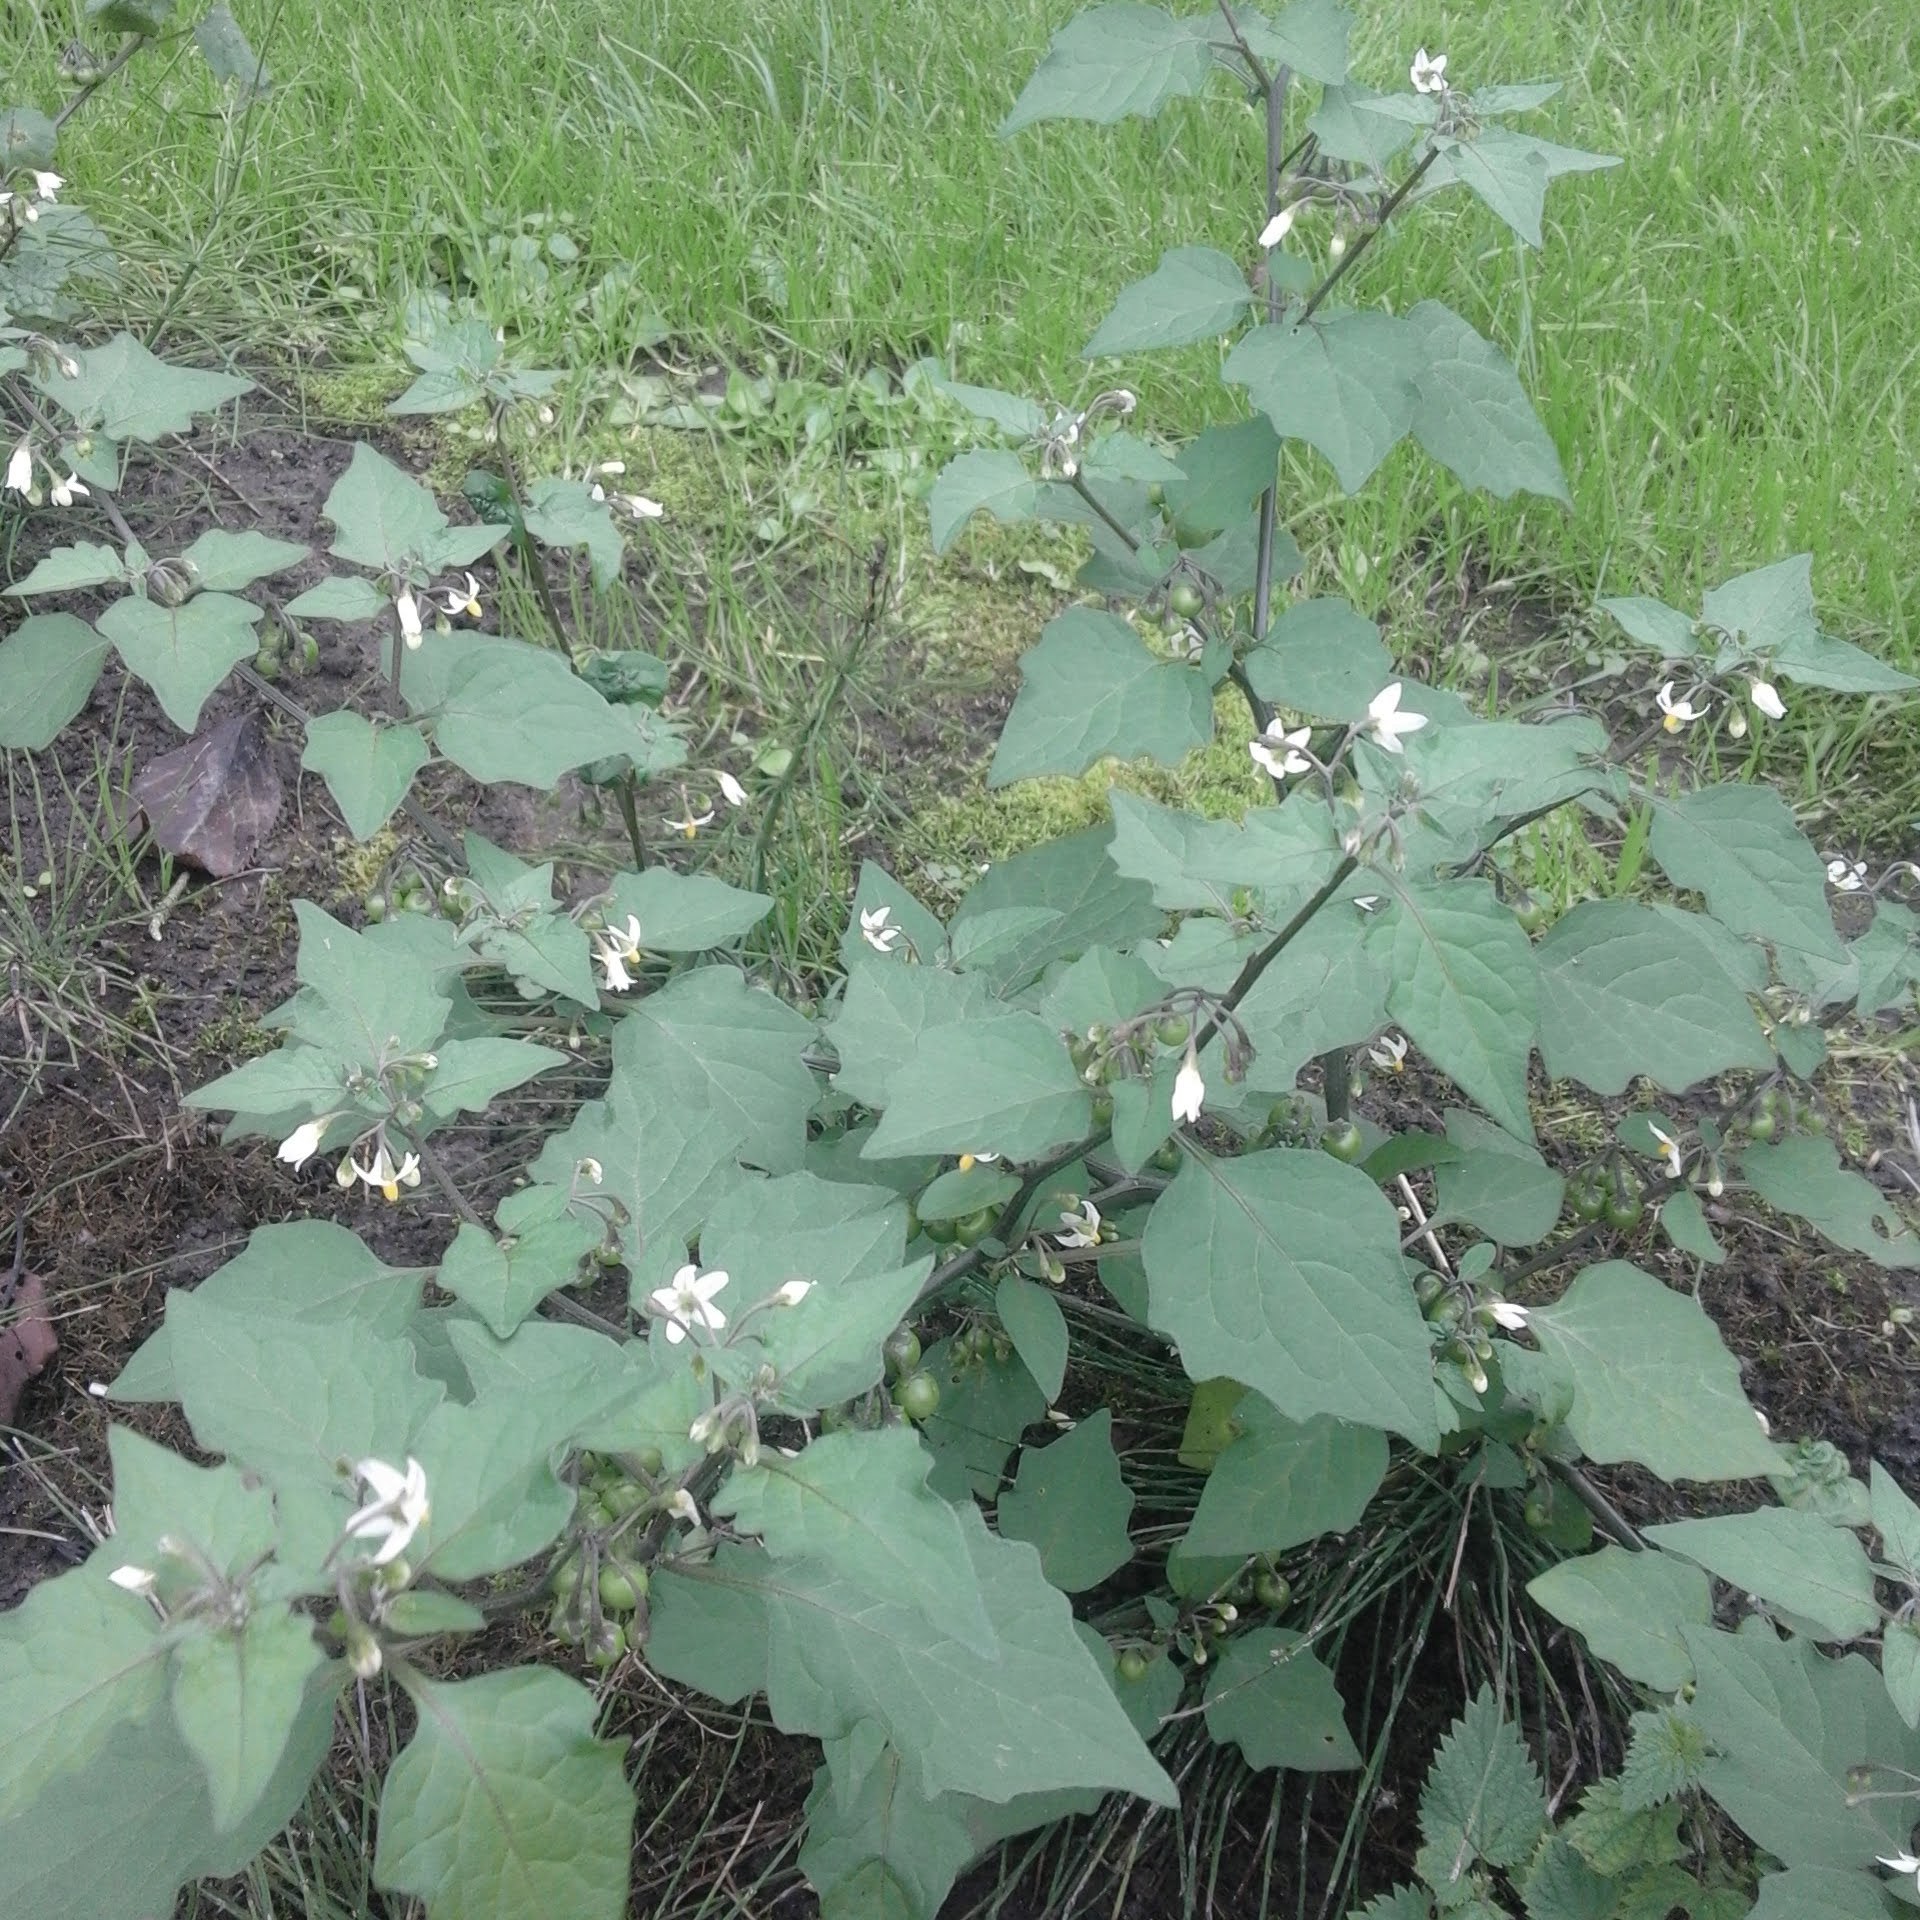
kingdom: Plantae
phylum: Tracheophyta
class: Magnoliopsida
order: Solanales
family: Solanaceae
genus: Solanum
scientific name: Solanum nigrum
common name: Black nightshade
